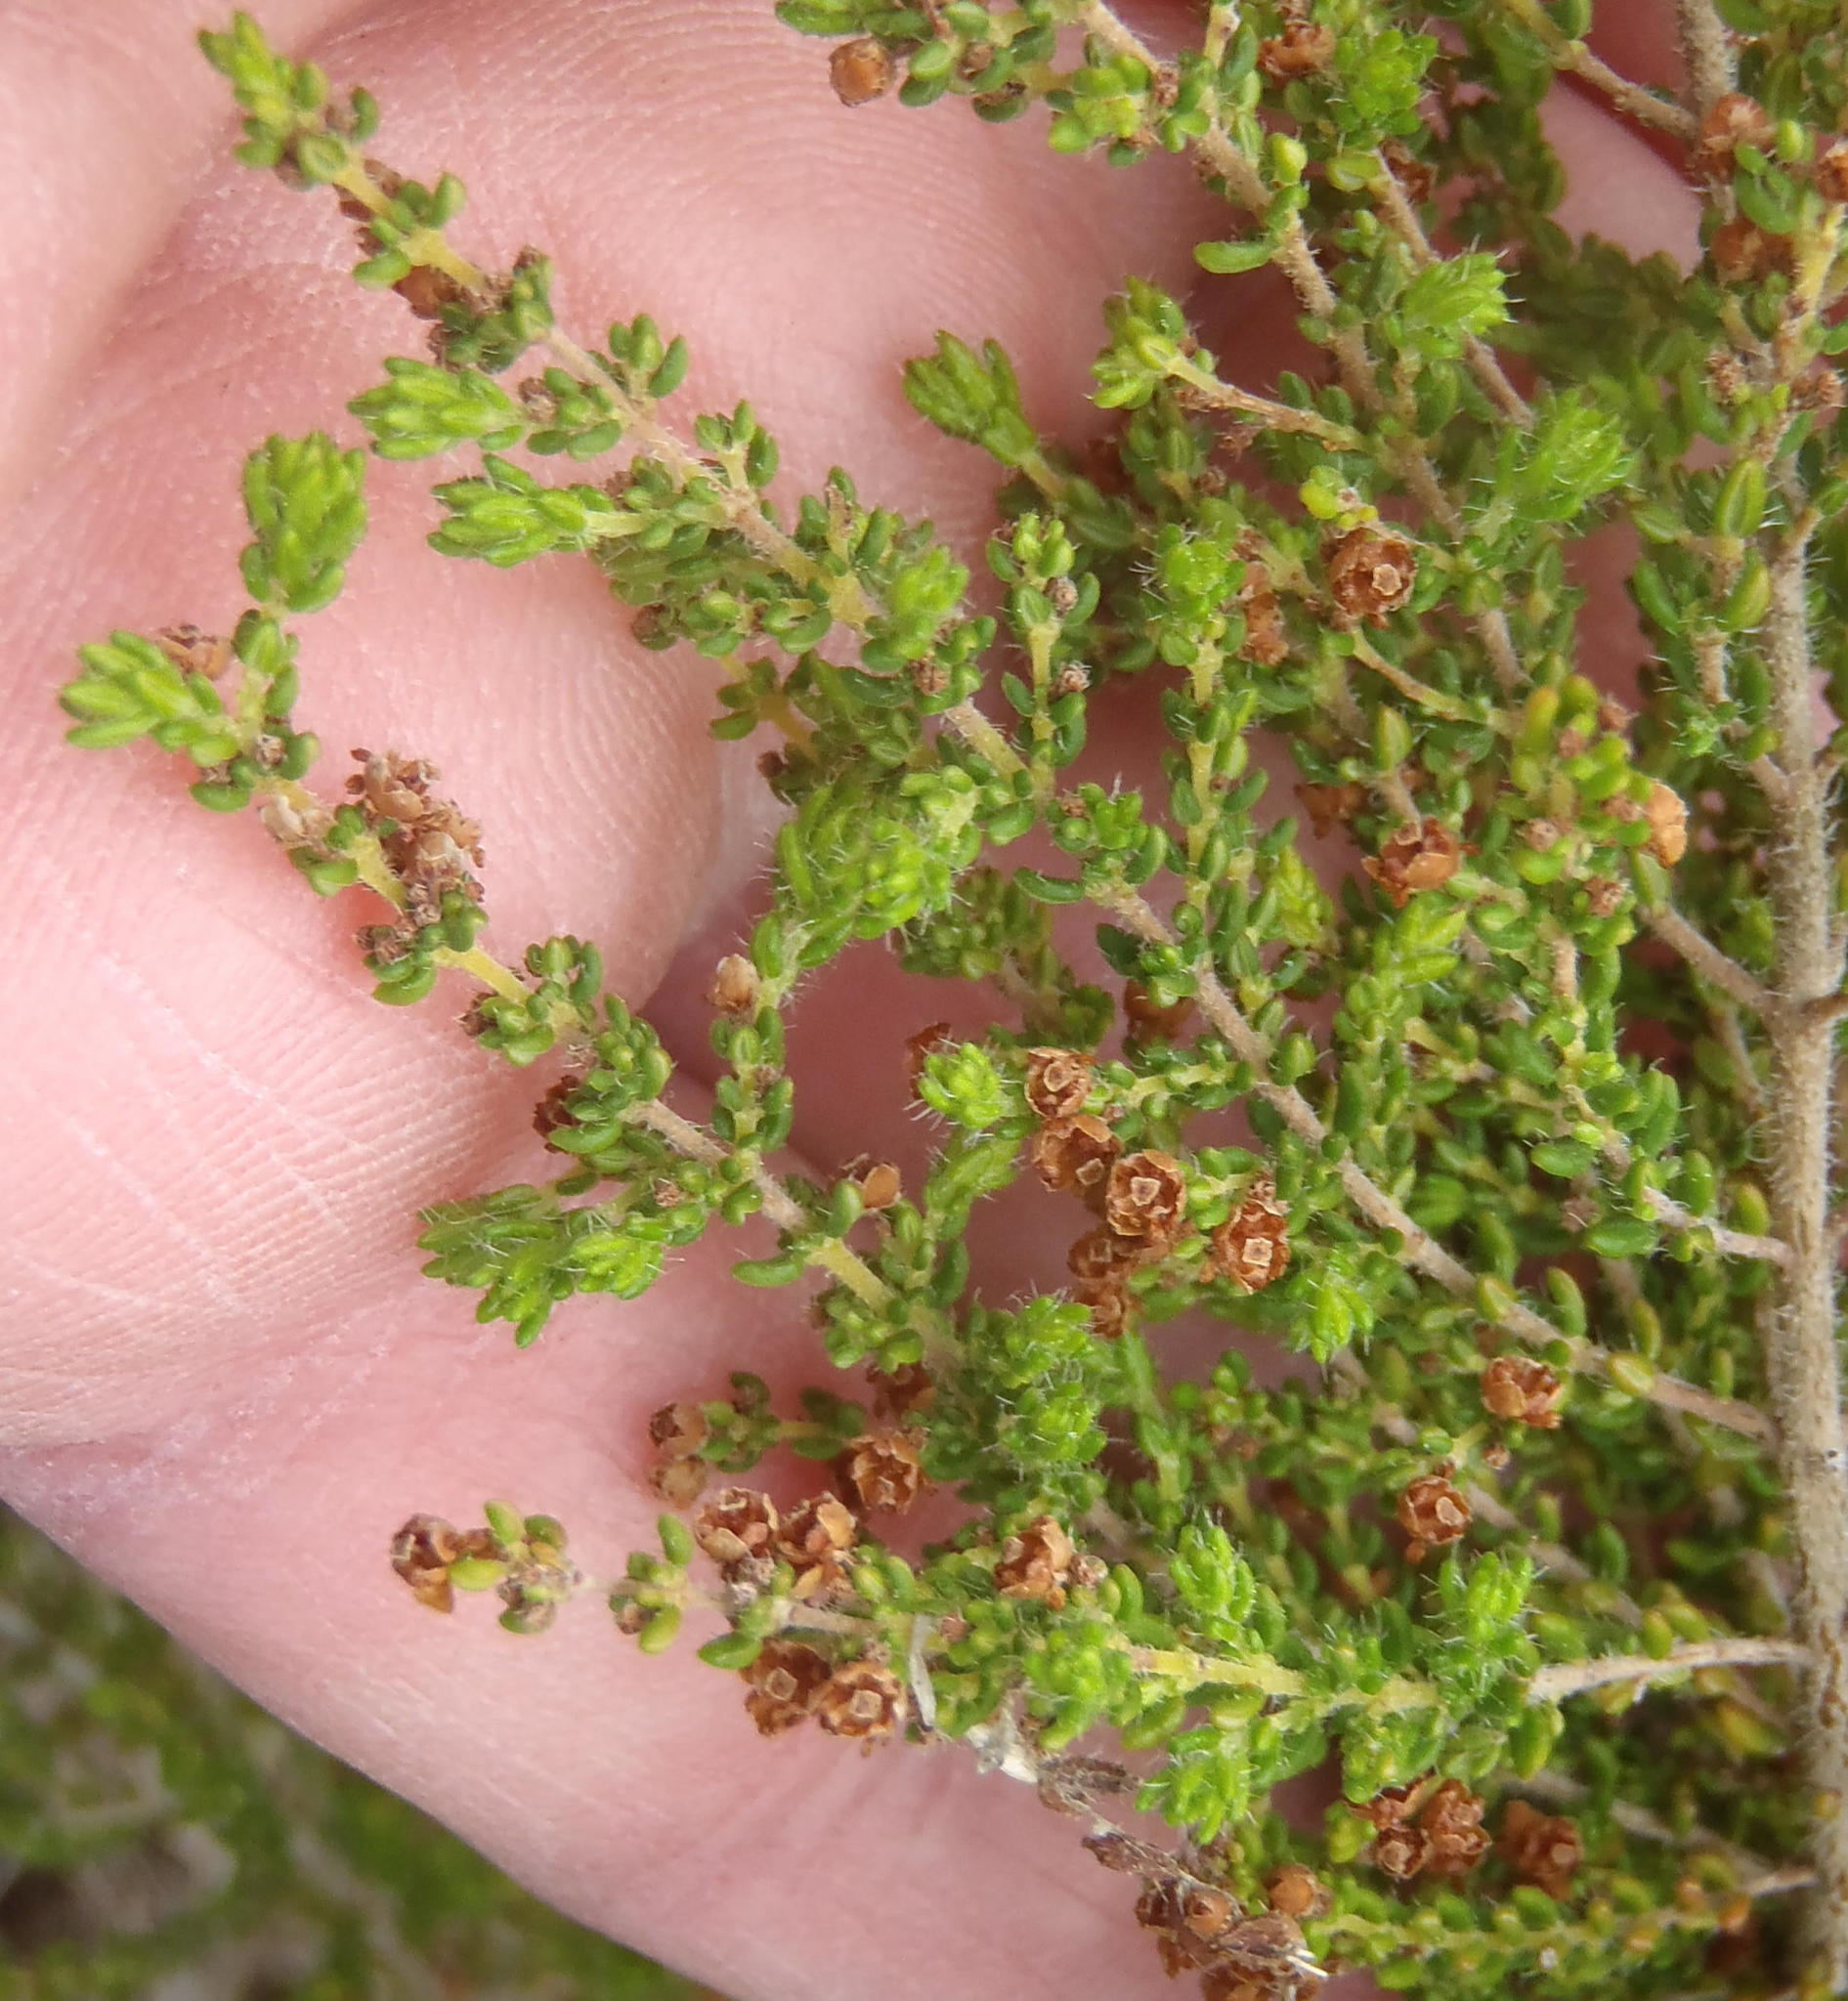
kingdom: Plantae
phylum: Tracheophyta
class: Magnoliopsida
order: Ericales
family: Ericaceae
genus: Erica
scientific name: Erica leucopelta
